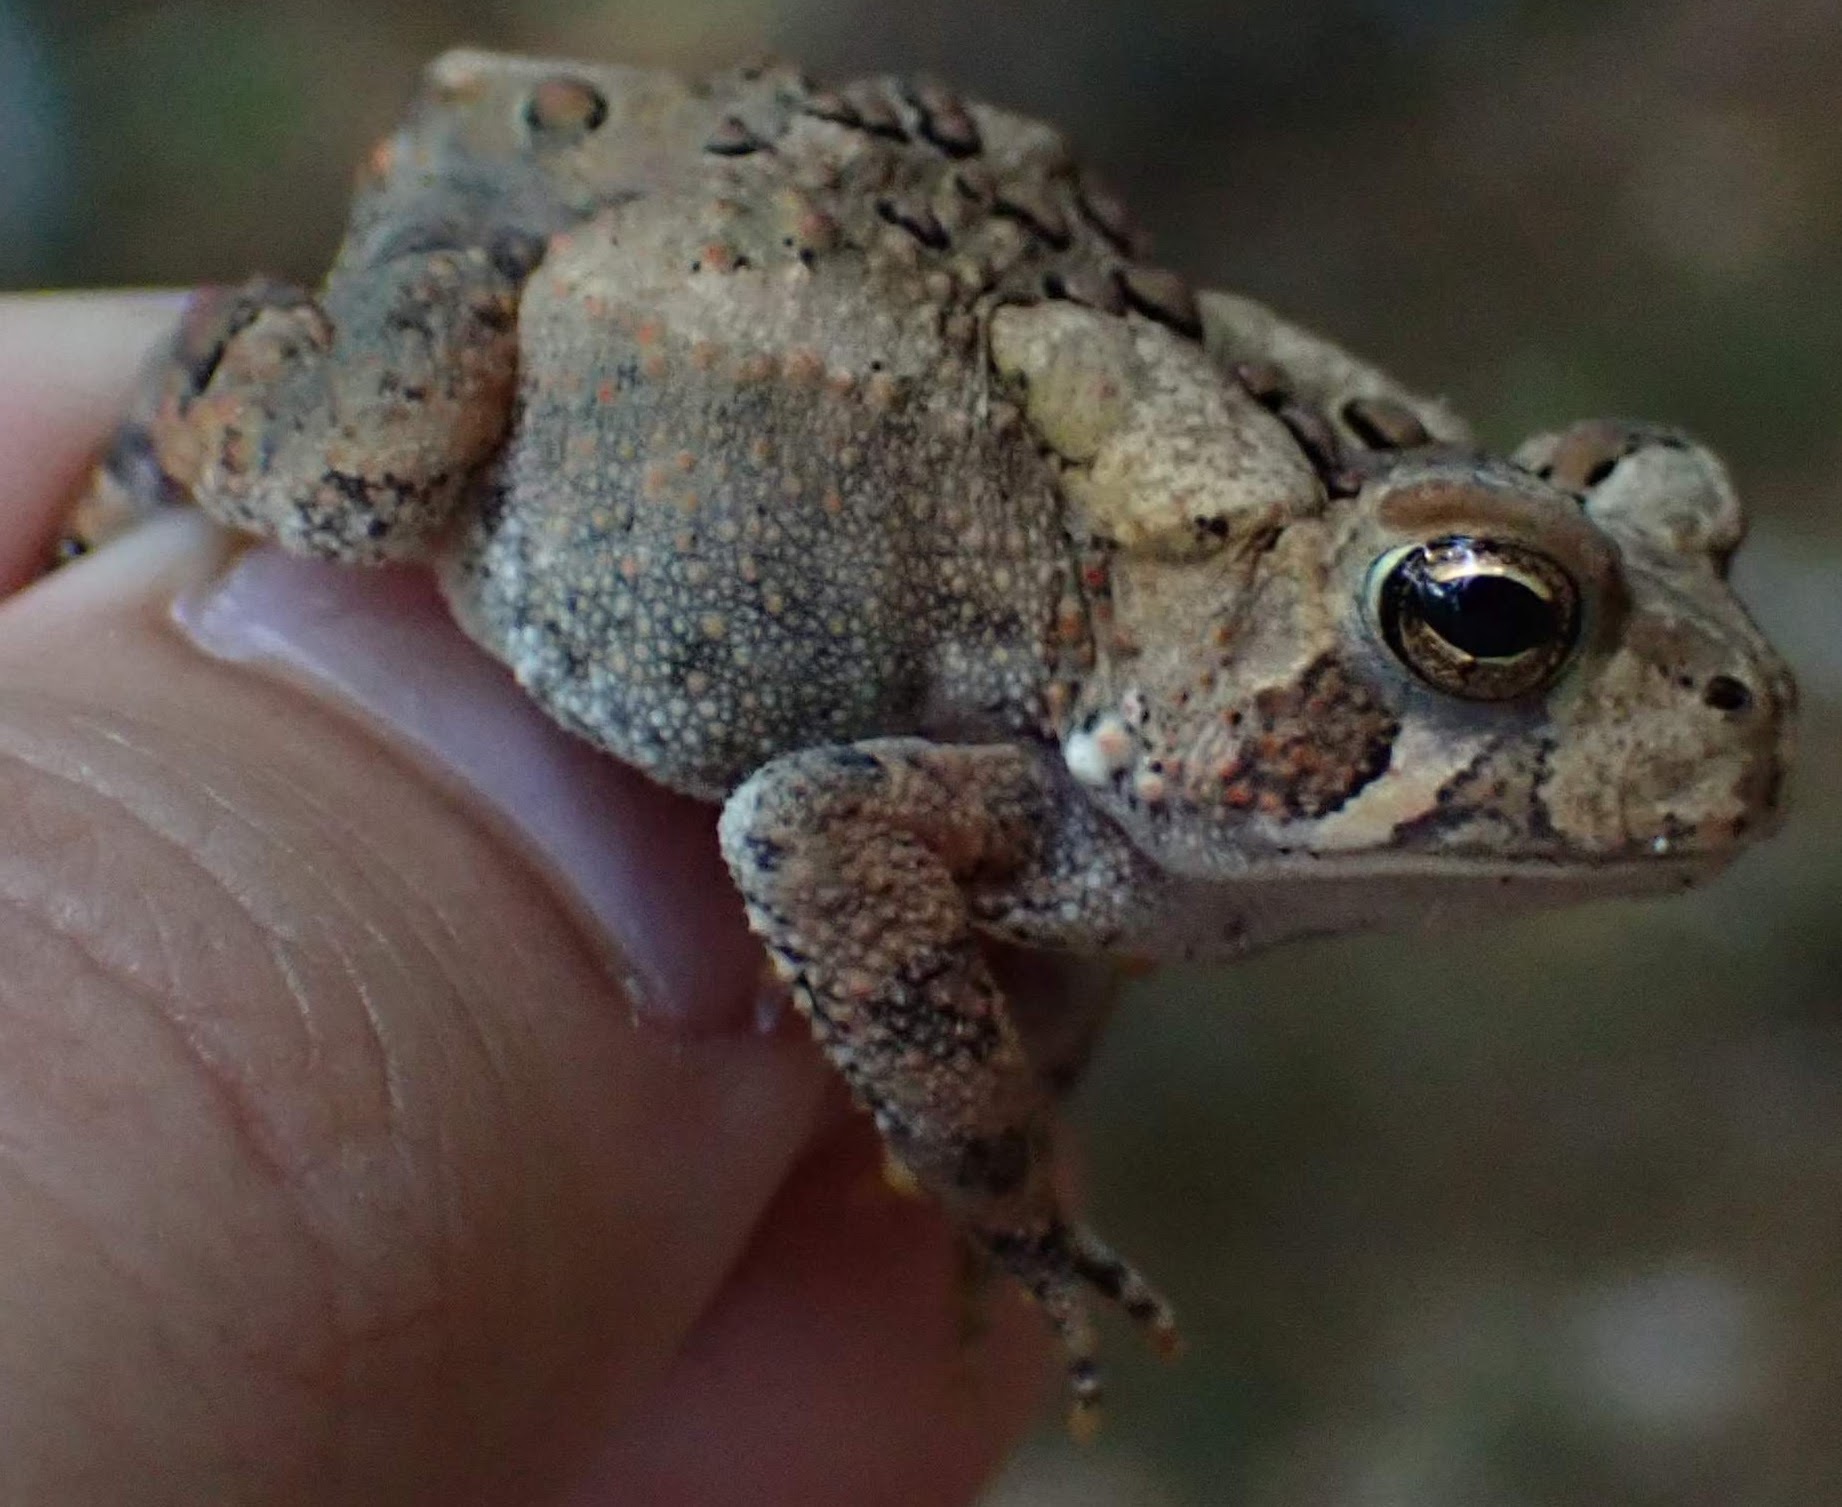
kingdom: Animalia
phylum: Chordata
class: Amphibia
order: Anura
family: Bufonidae
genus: Anaxyrus
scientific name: Anaxyrus americanus
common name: American toad
